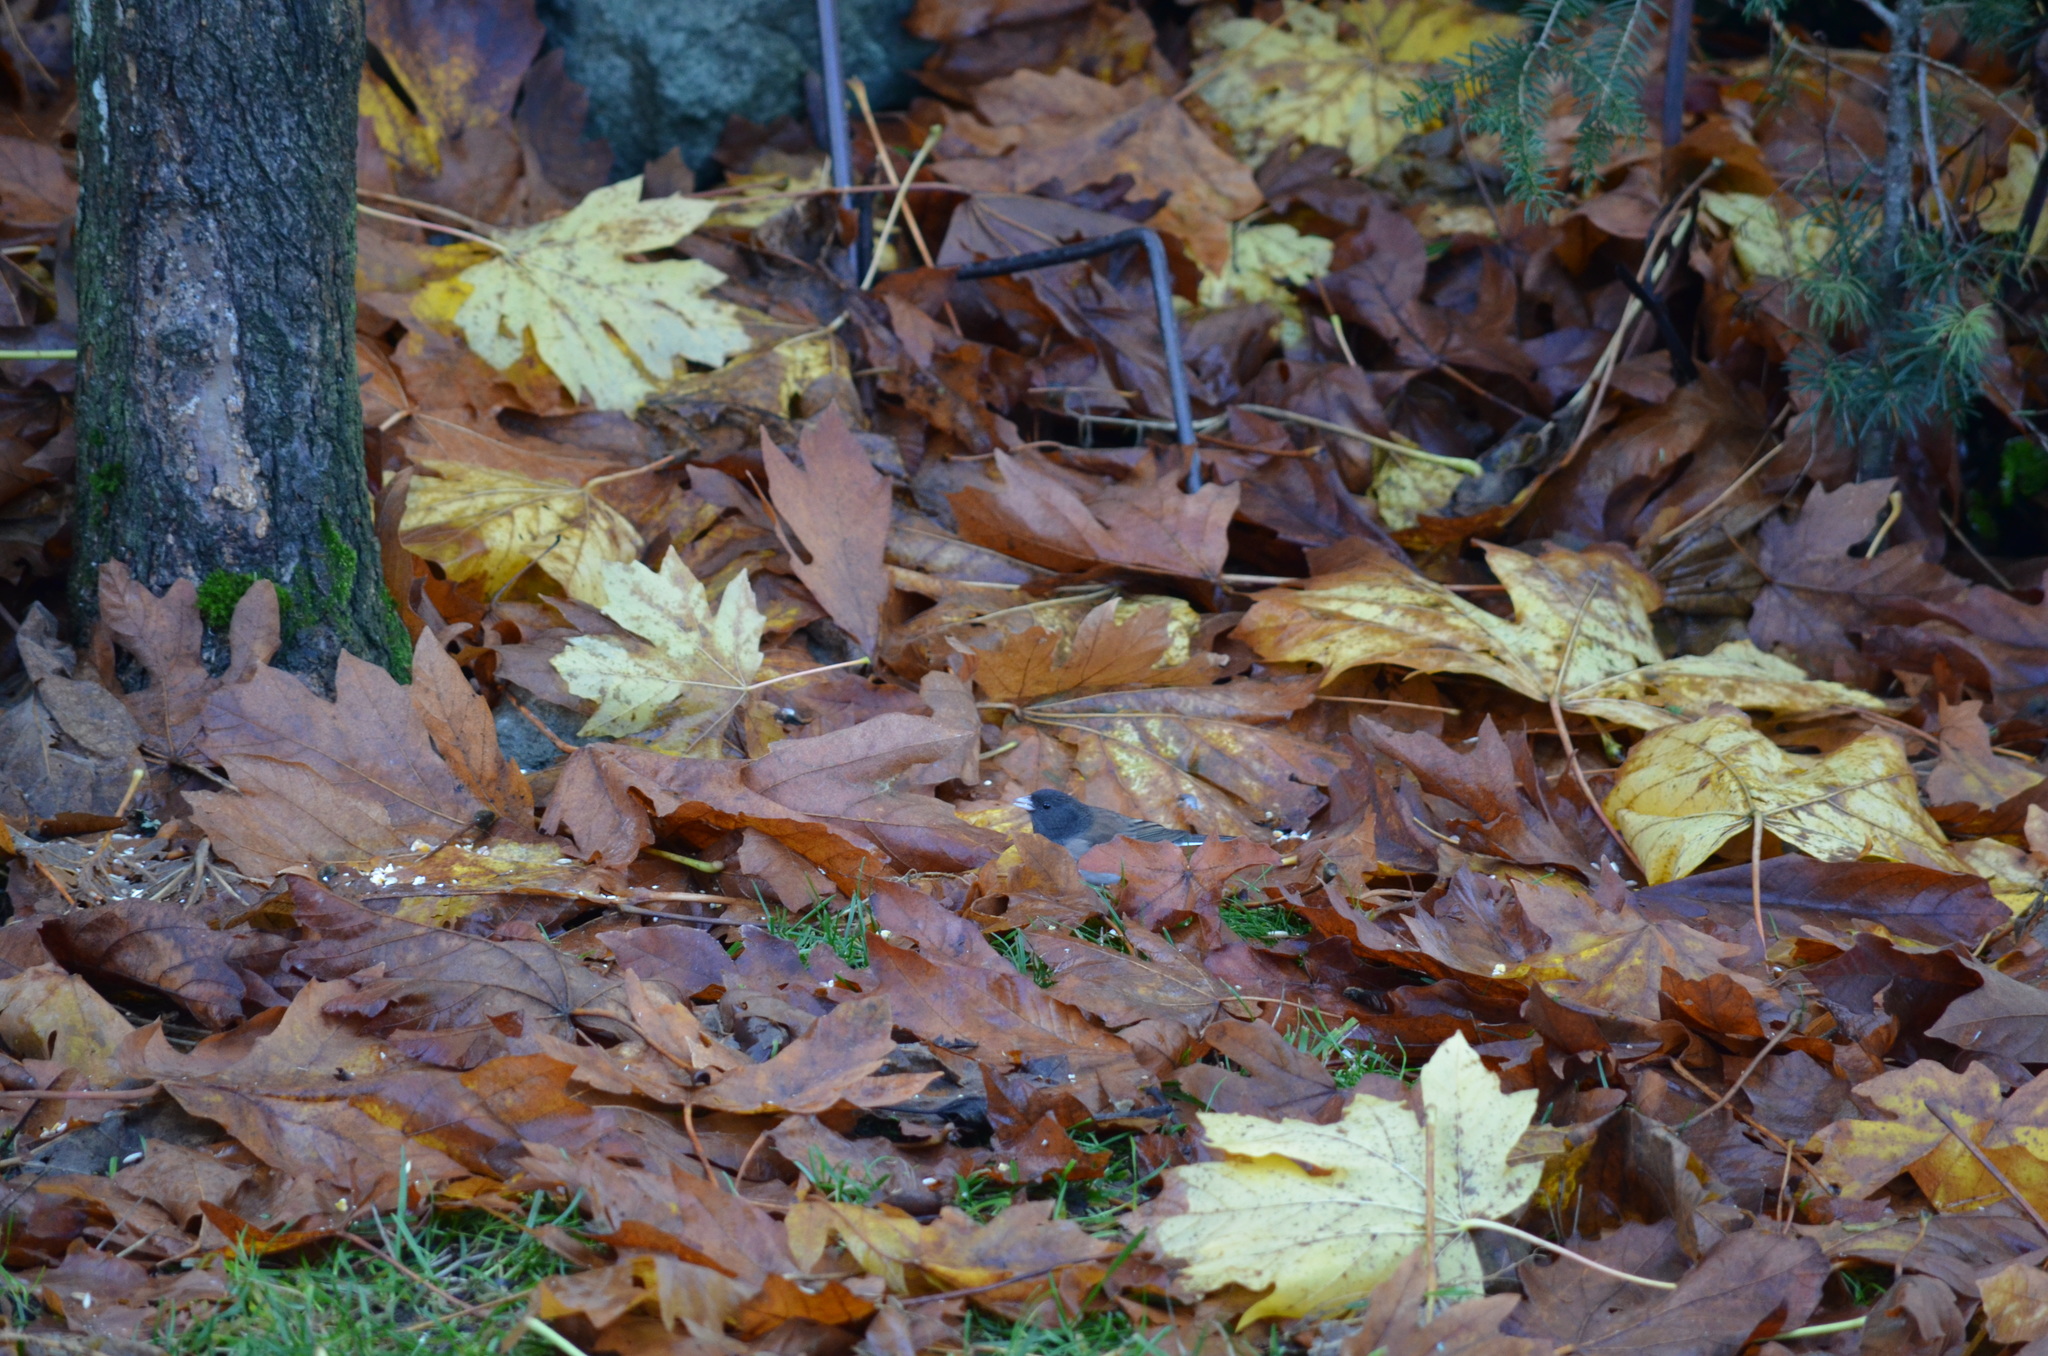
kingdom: Animalia
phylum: Chordata
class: Aves
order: Passeriformes
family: Passerellidae
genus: Junco
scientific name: Junco hyemalis
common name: Dark-eyed junco
